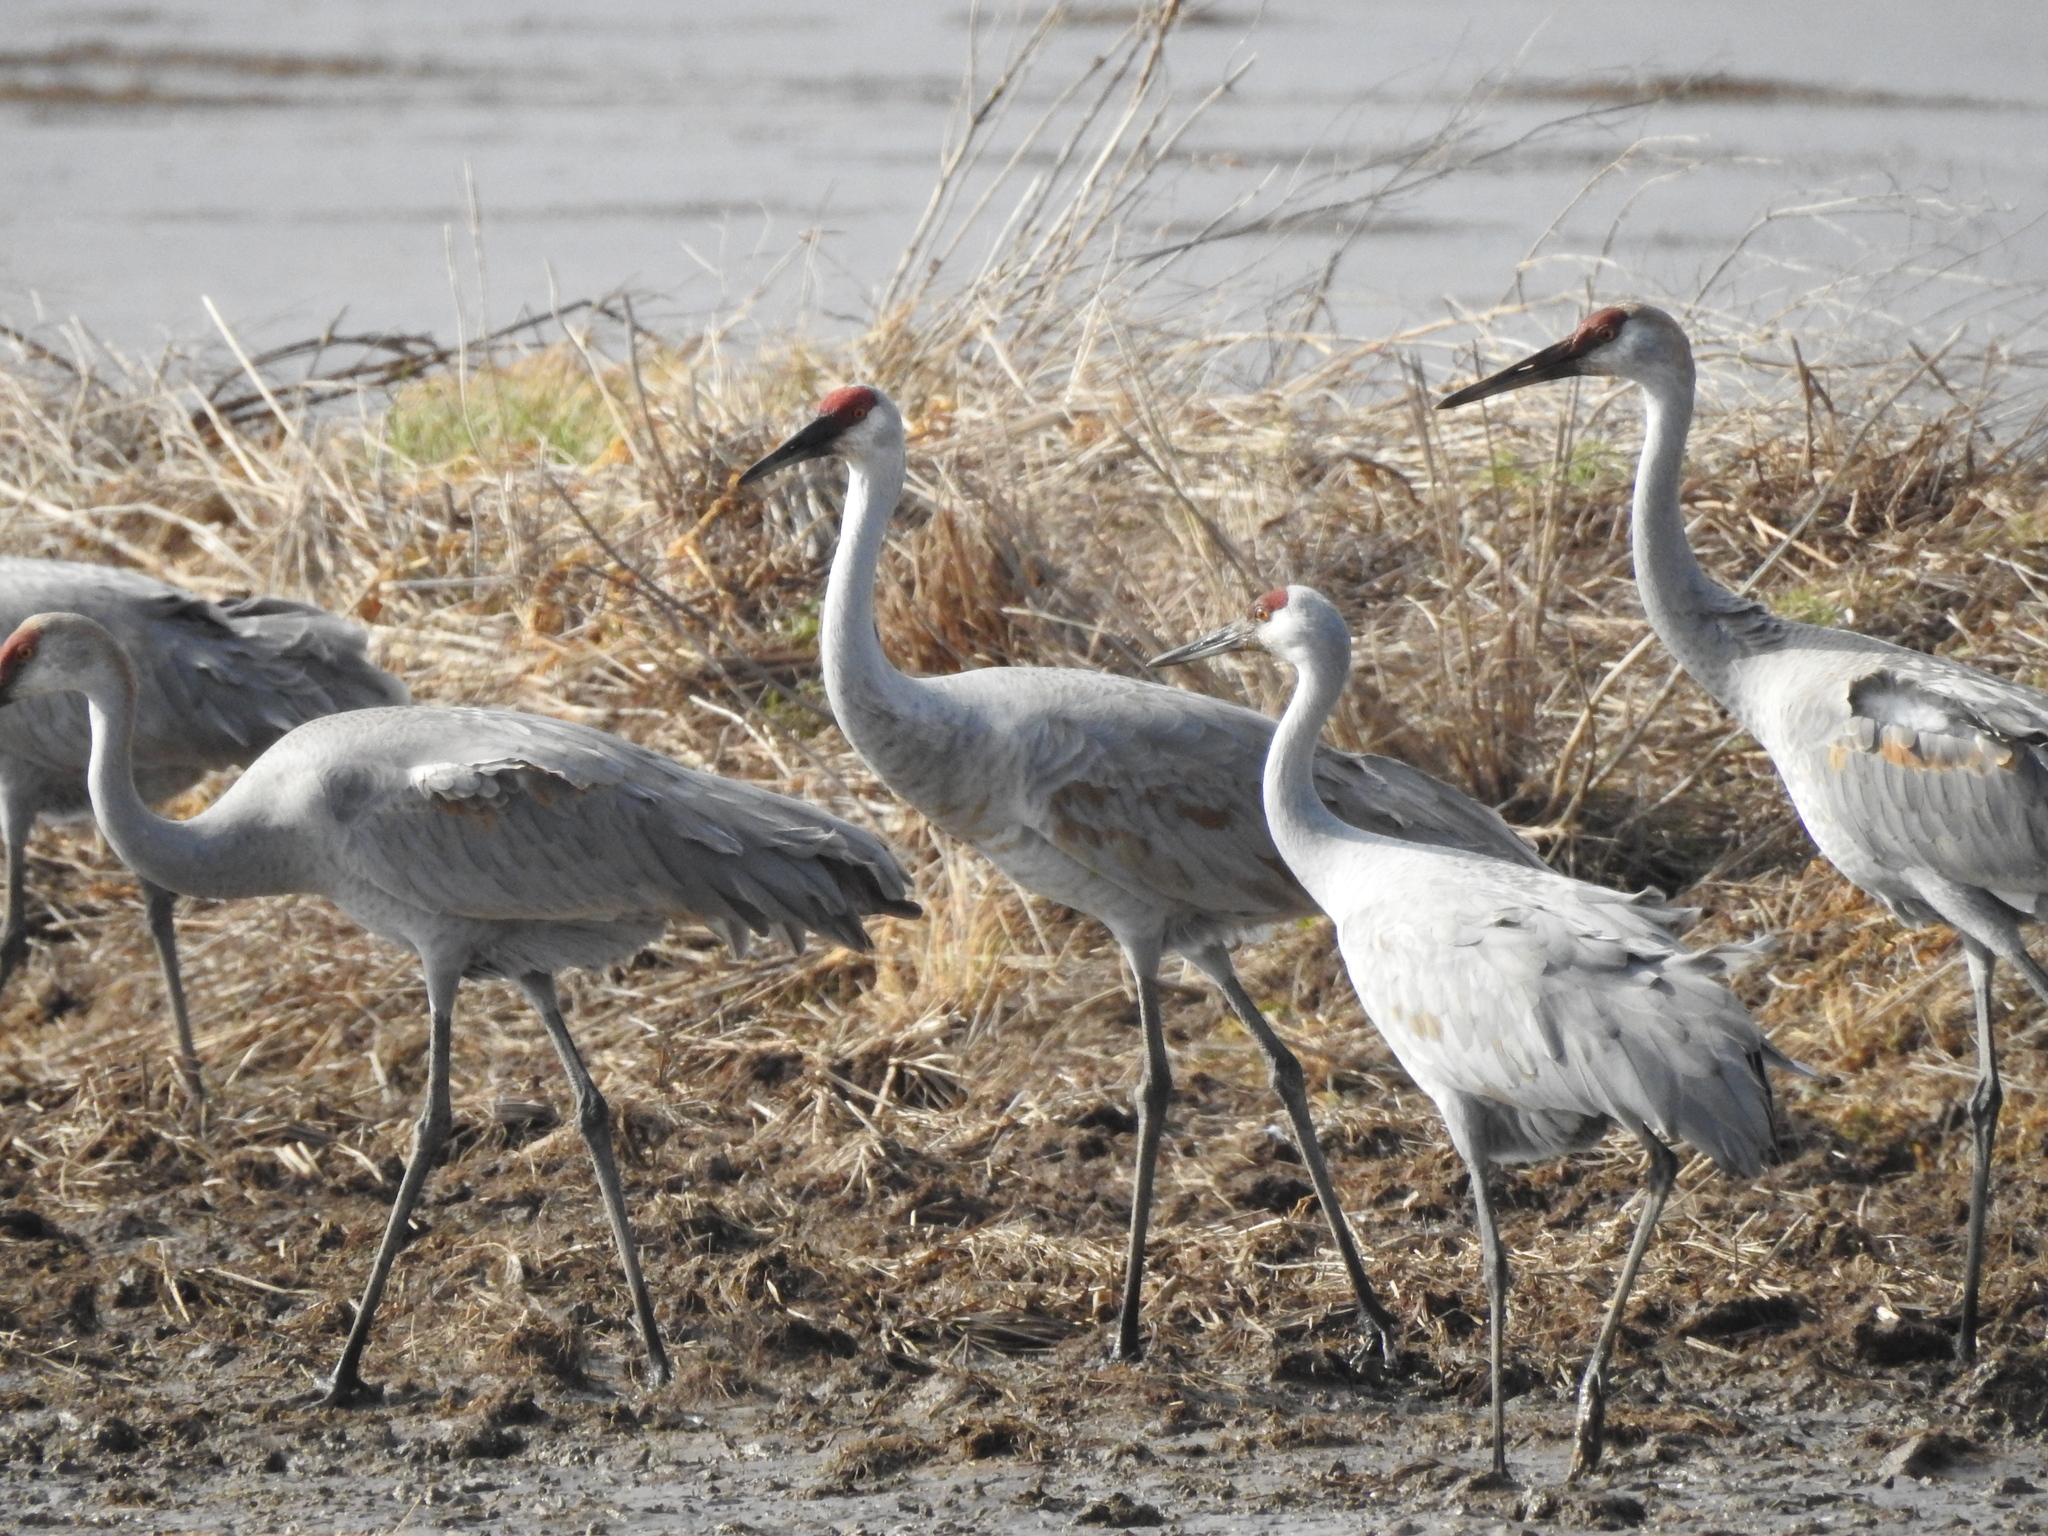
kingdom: Animalia
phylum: Chordata
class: Aves
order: Gruiformes
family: Gruidae
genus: Grus
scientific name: Grus canadensis
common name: Sandhill crane
